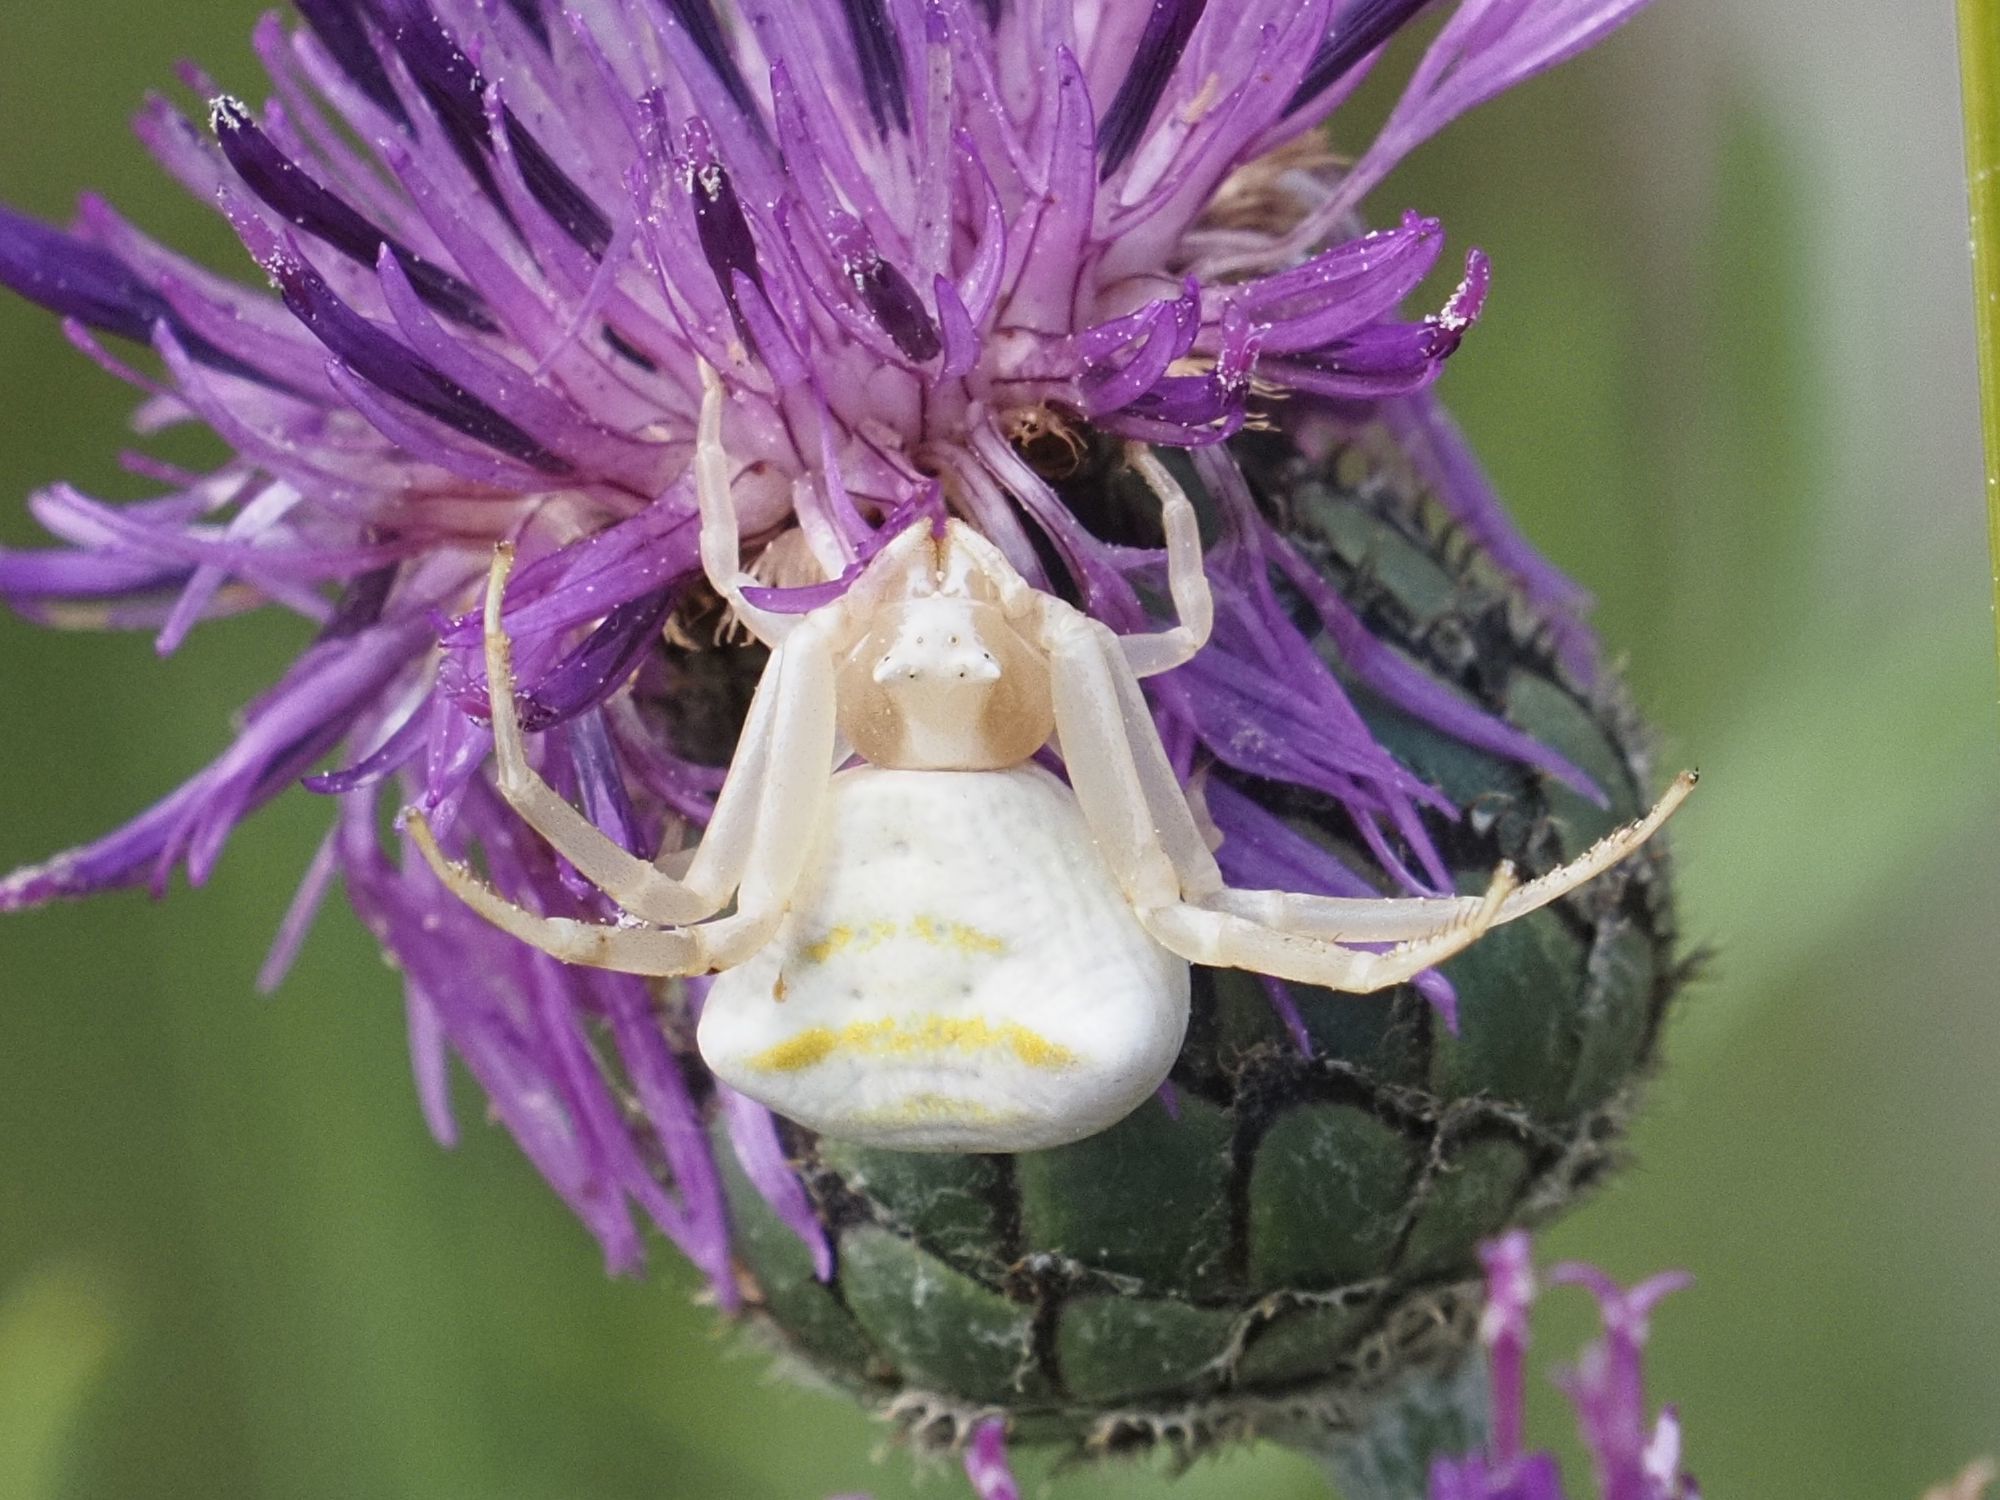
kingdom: Animalia
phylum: Arthropoda
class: Arachnida
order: Araneae
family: Thomisidae
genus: Thomisus
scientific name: Thomisus onustus
